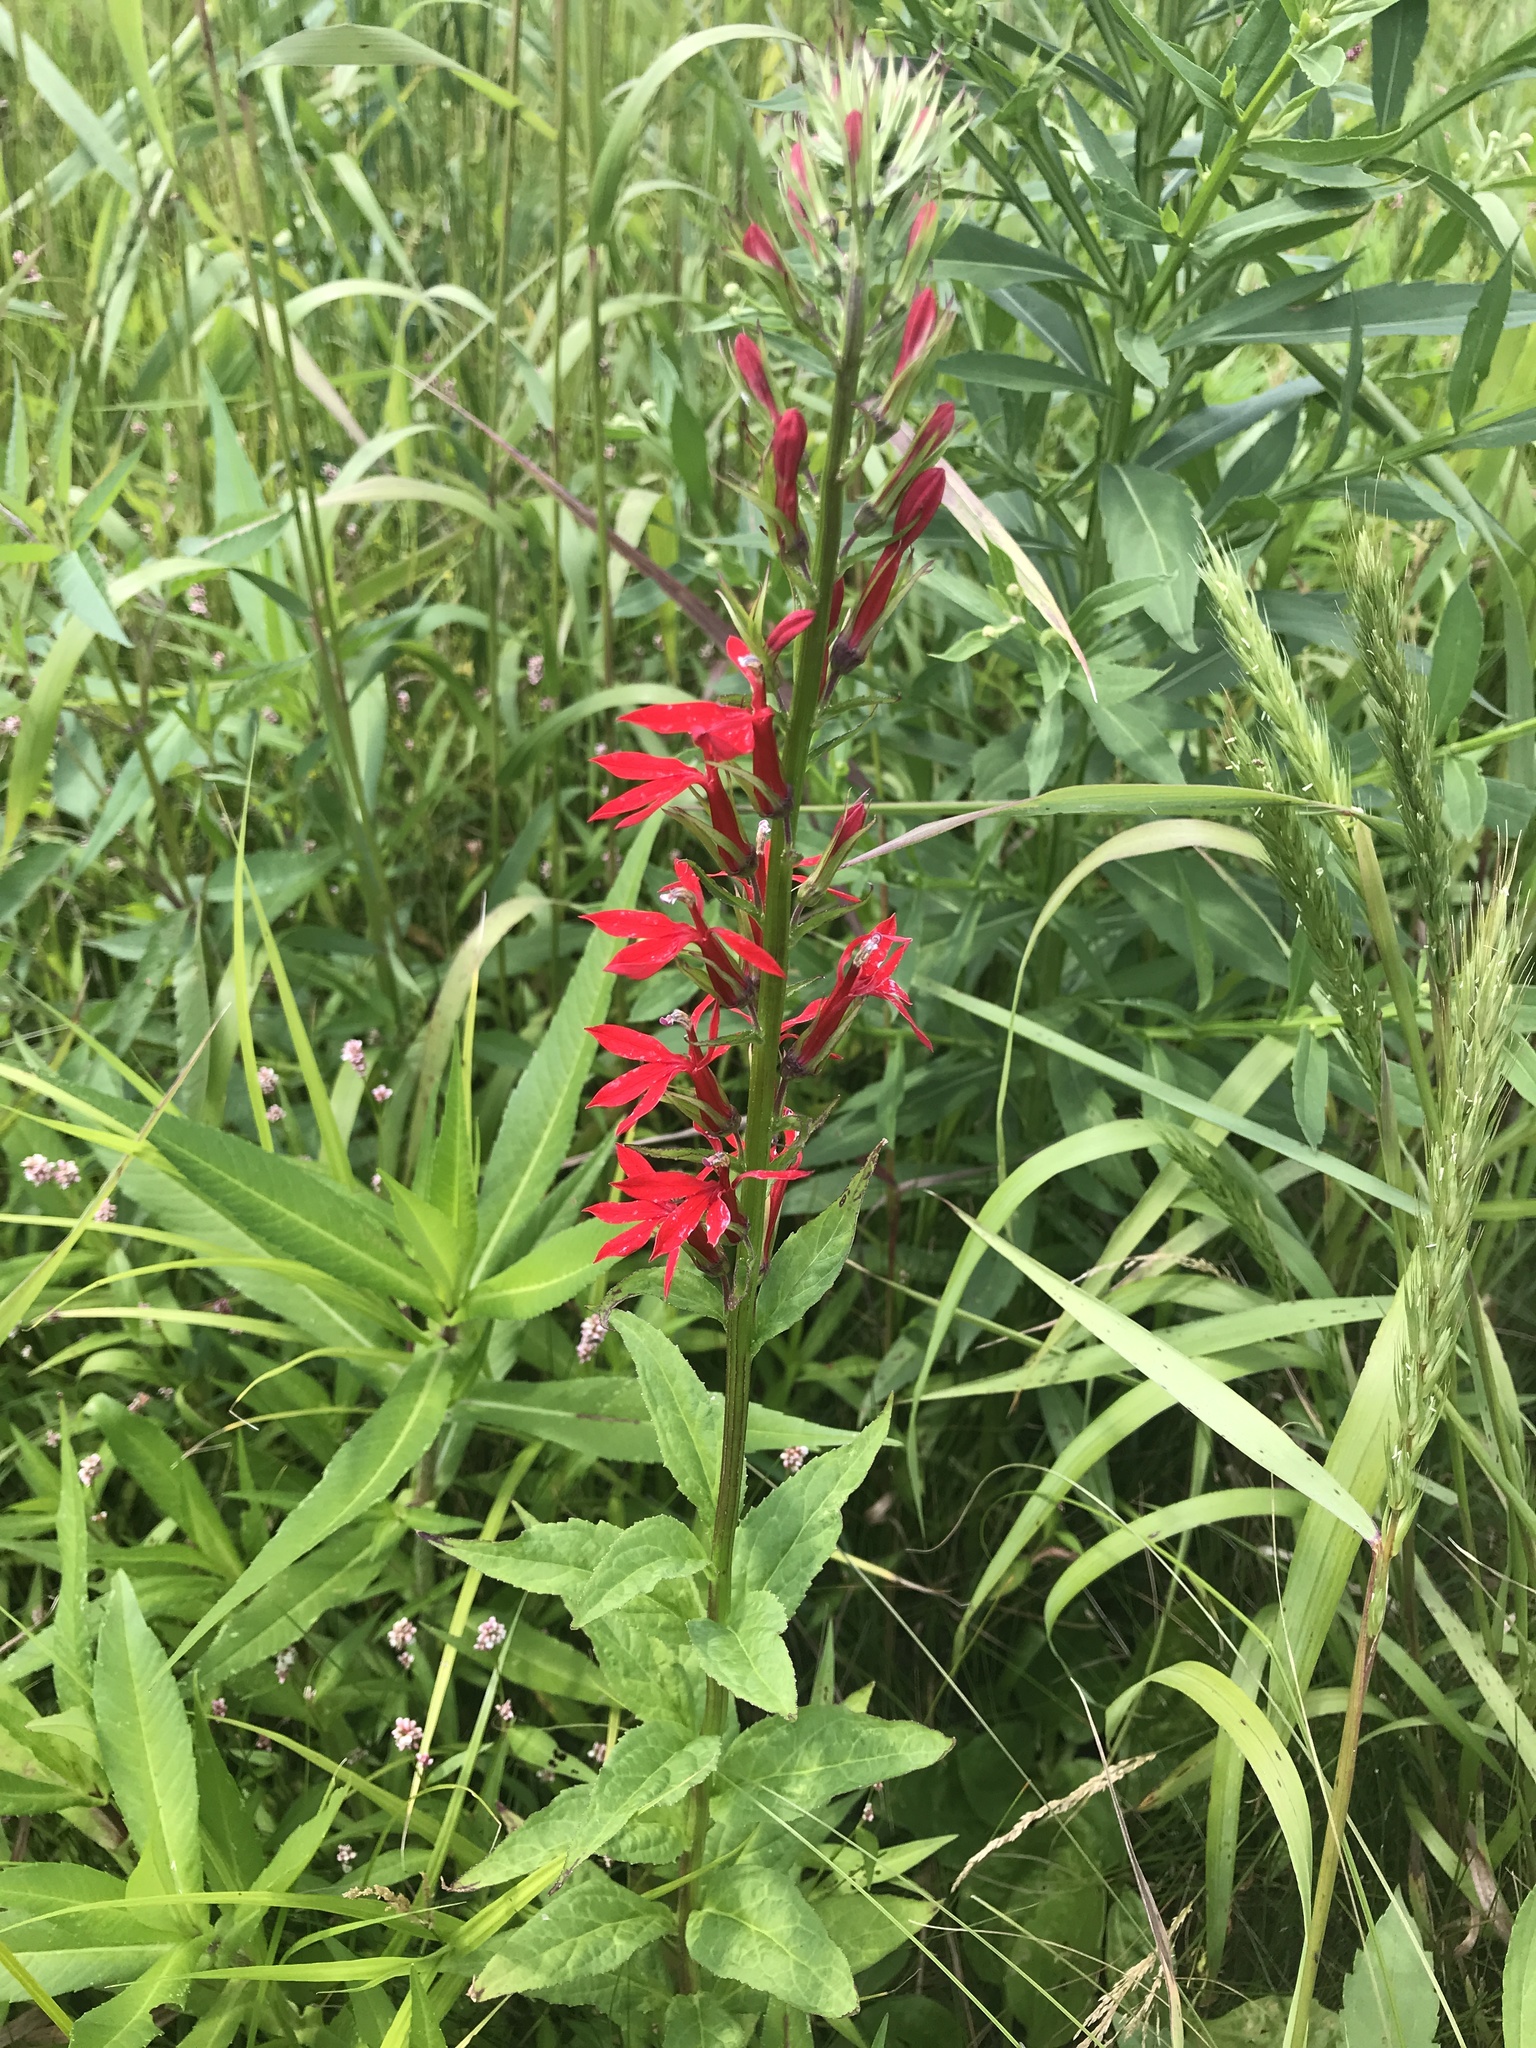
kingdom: Plantae
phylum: Tracheophyta
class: Magnoliopsida
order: Asterales
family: Campanulaceae
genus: Lobelia
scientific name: Lobelia cardinalis
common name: Cardinal flower
